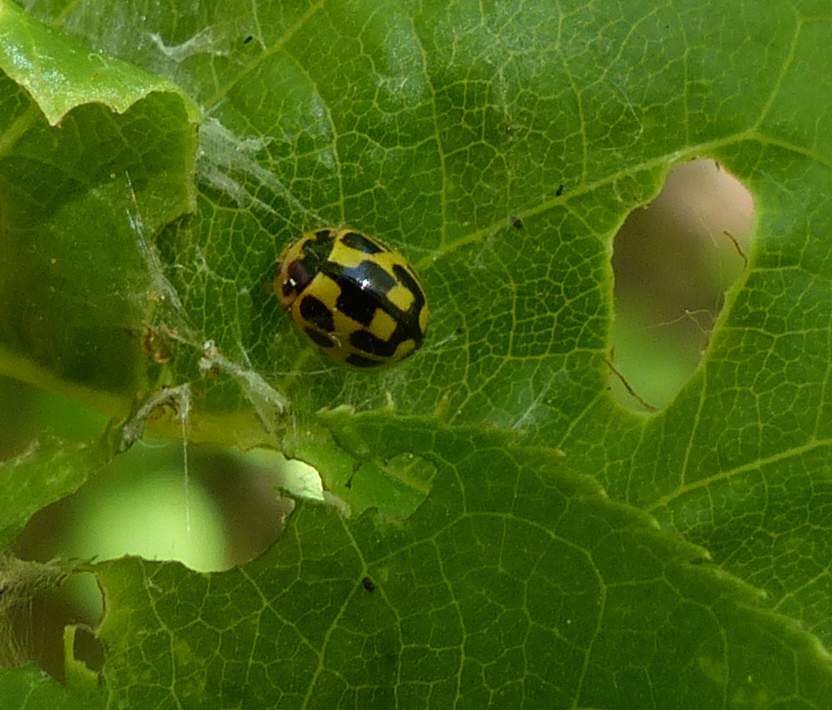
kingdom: Animalia
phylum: Arthropoda
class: Insecta
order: Coleoptera
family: Coccinellidae
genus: Propylaea
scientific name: Propylaea quatuordecimpunctata
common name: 14-spotted ladybird beetle
